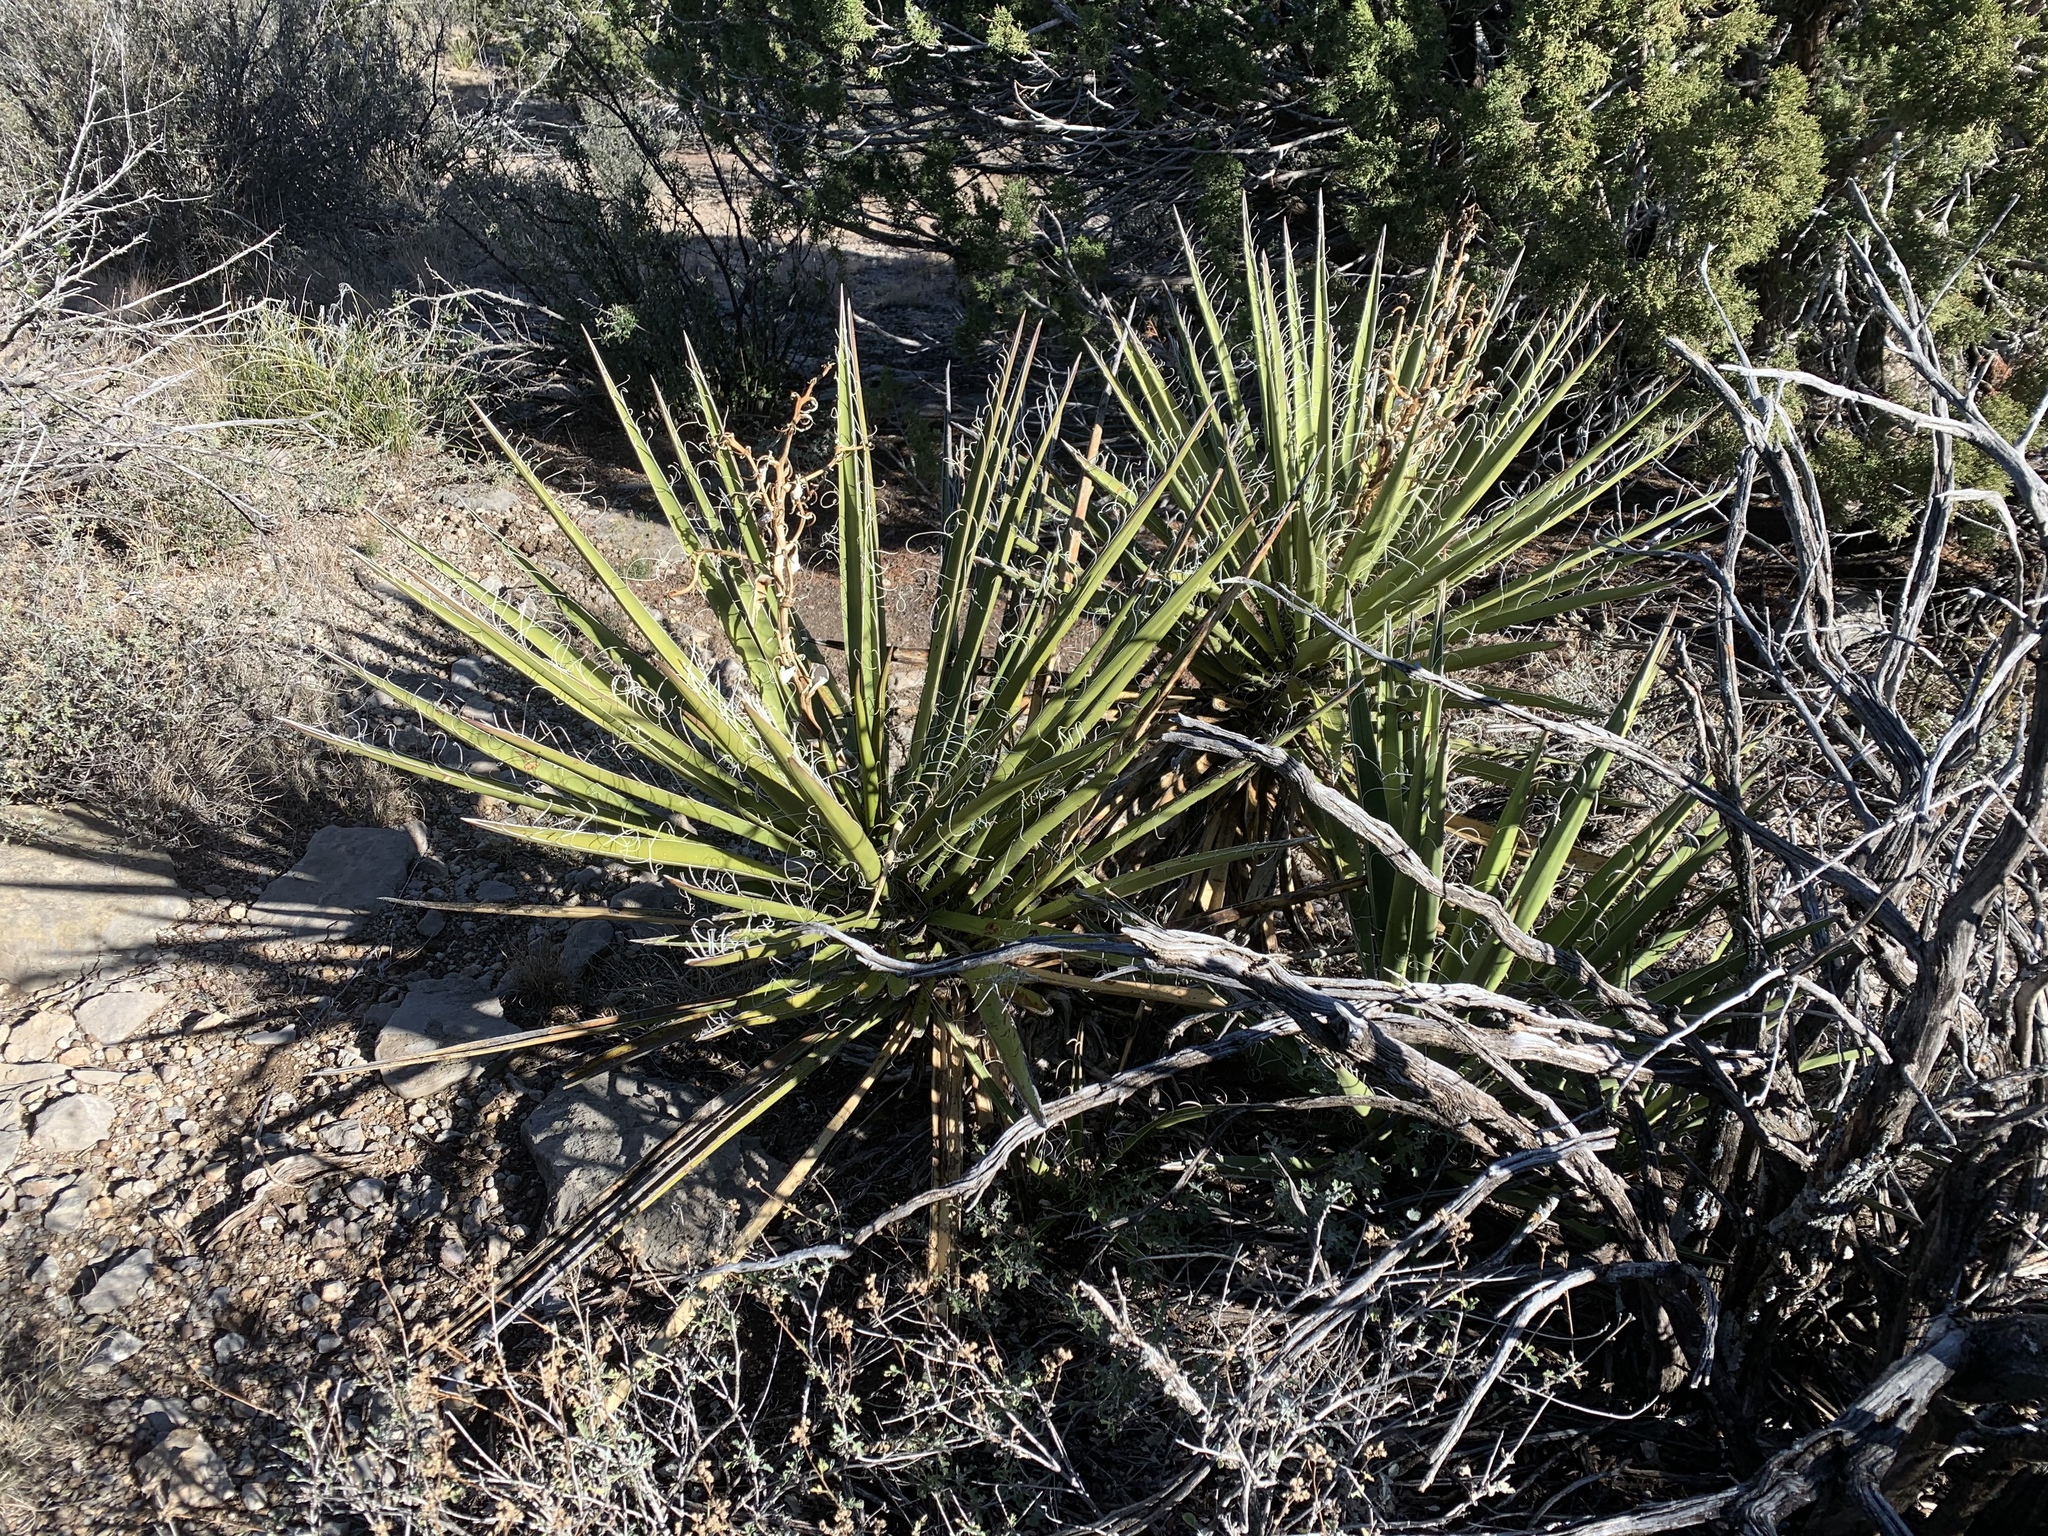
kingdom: Plantae
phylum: Tracheophyta
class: Liliopsida
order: Asparagales
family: Asparagaceae
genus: Yucca
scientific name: Yucca baccata
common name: Banana yucca
